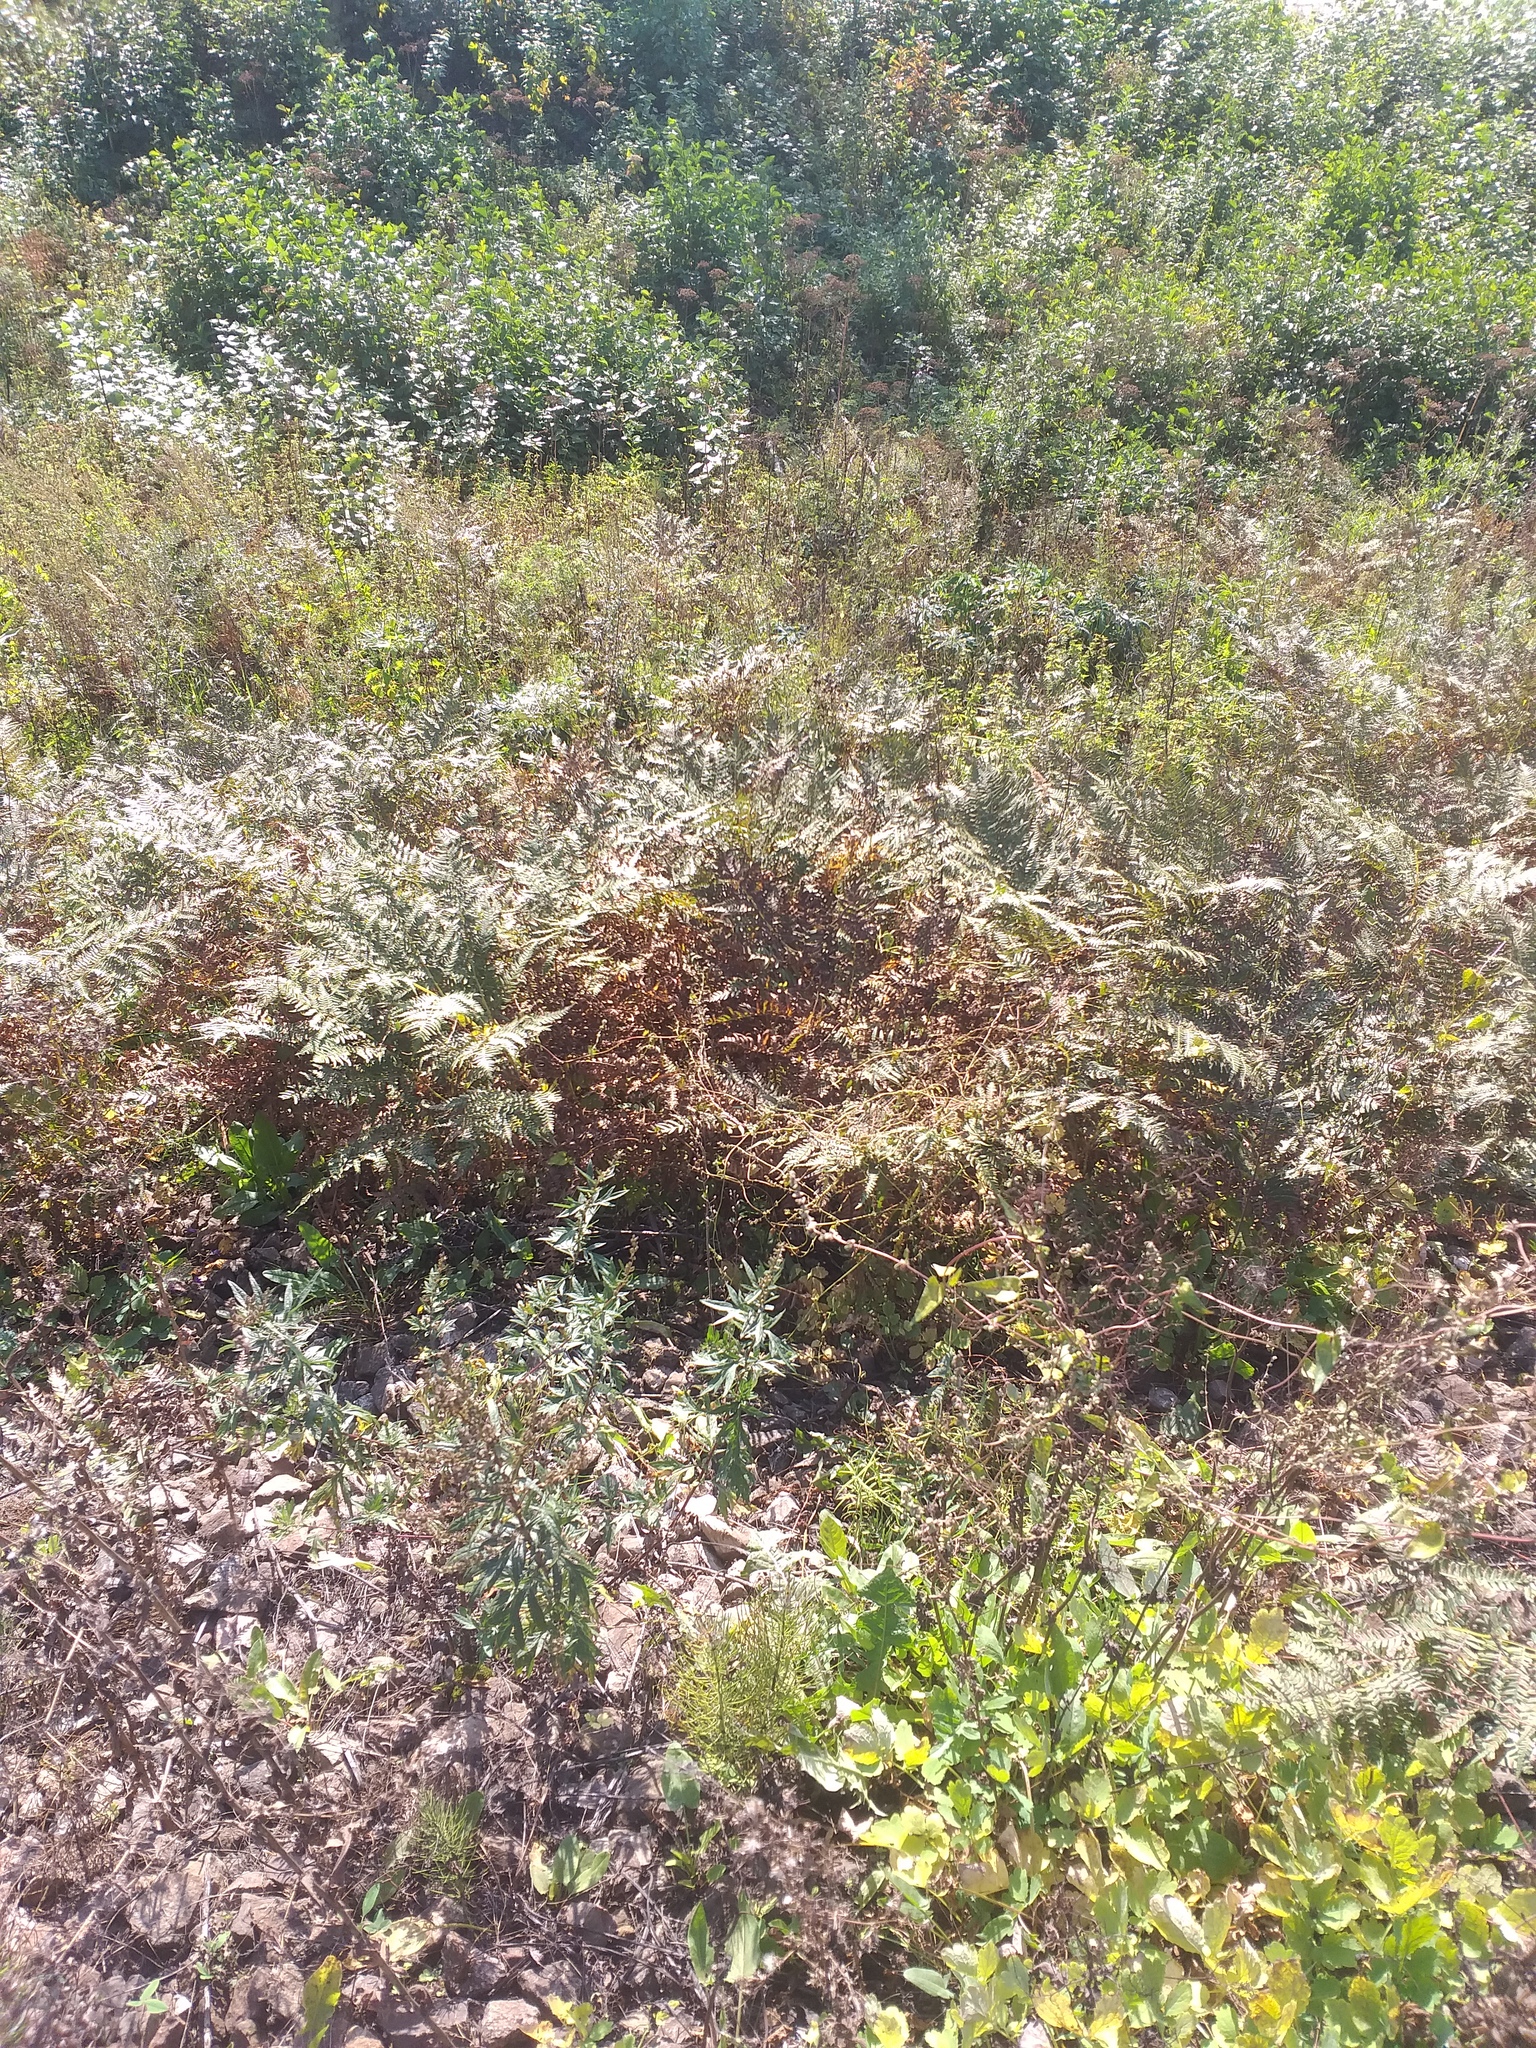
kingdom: Plantae
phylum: Tracheophyta
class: Polypodiopsida
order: Polypodiales
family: Dennstaedtiaceae
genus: Pteridium
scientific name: Pteridium aquilinum
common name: Bracken
